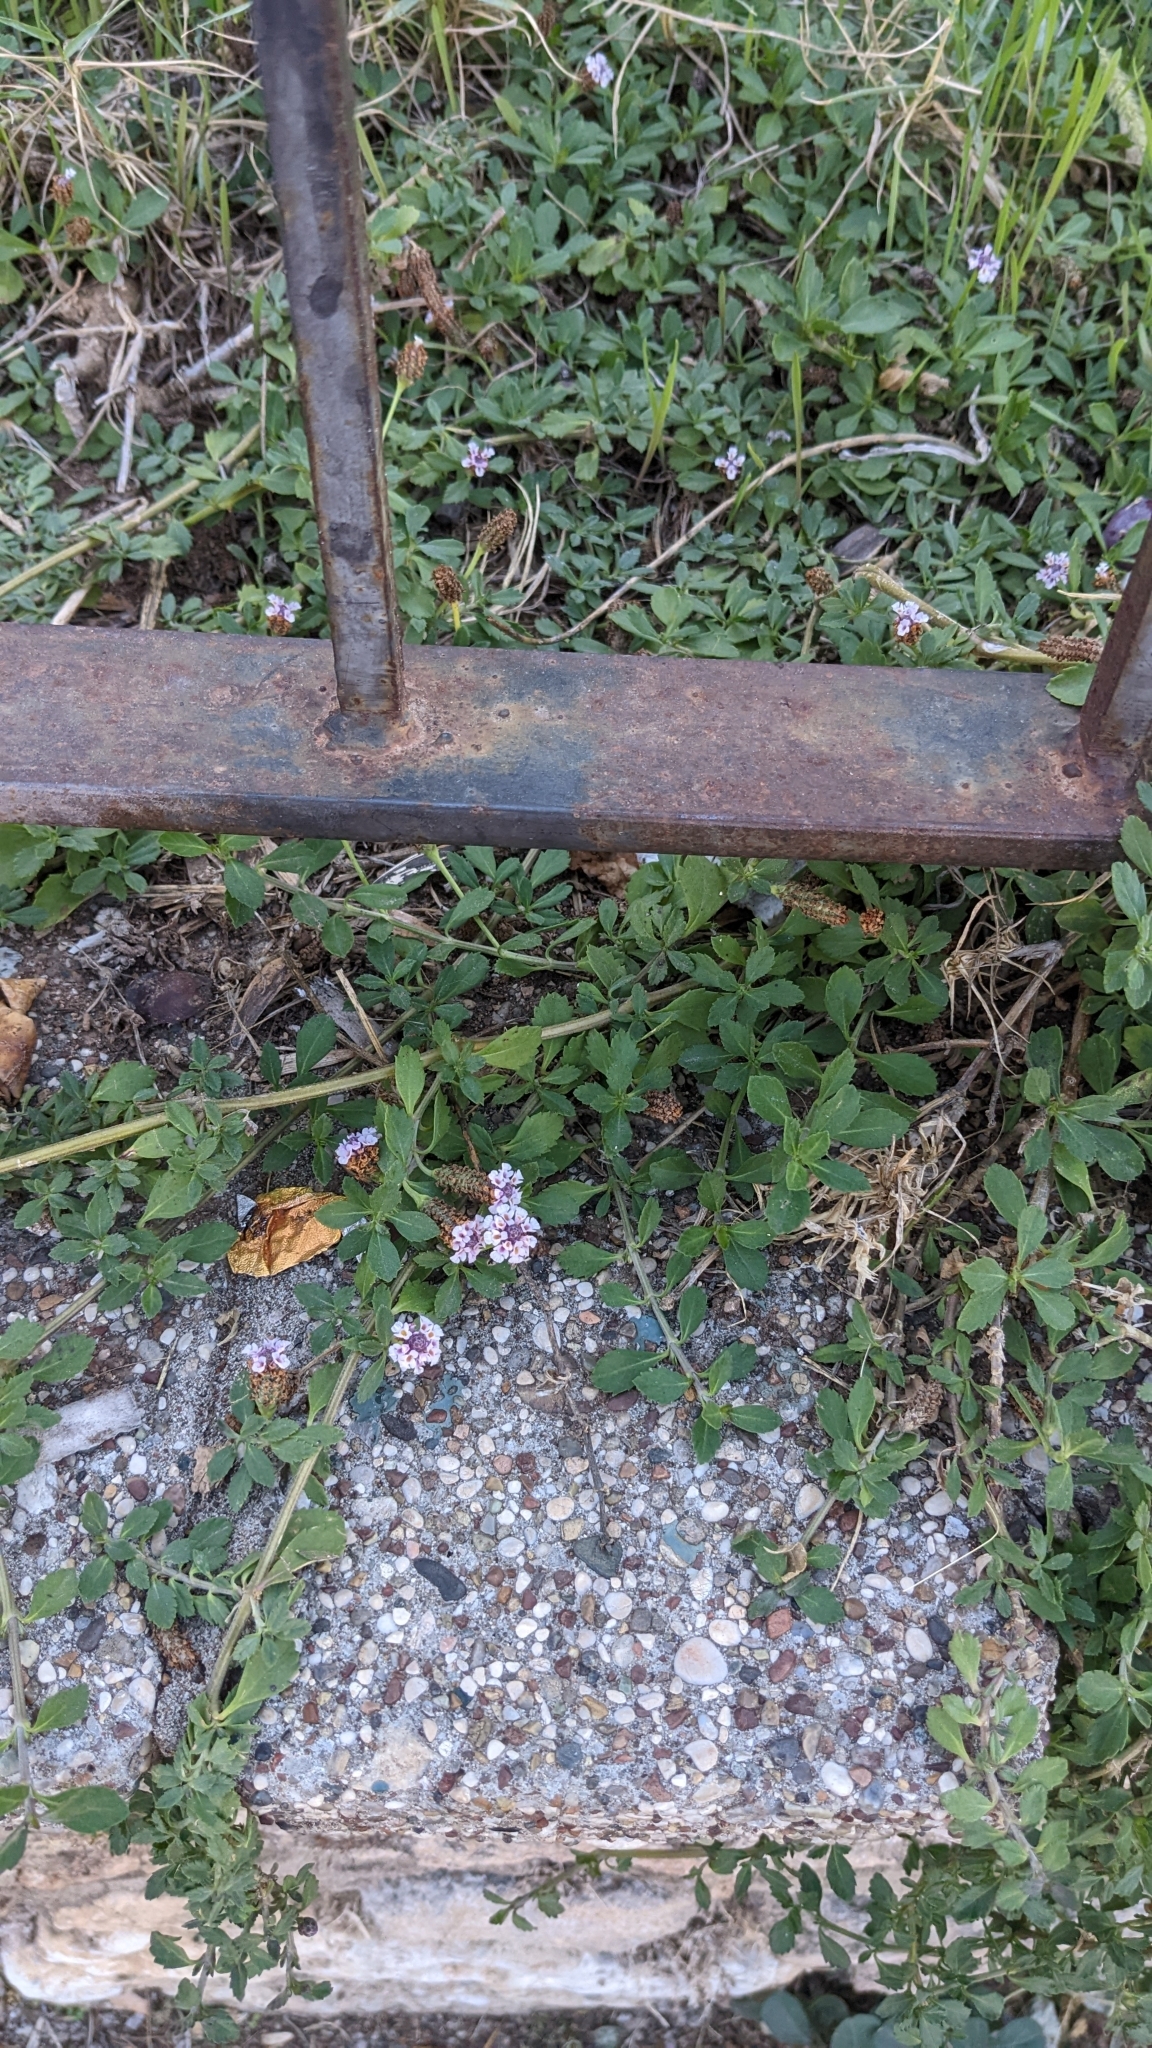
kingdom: Plantae
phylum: Tracheophyta
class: Magnoliopsida
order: Lamiales
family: Verbenaceae
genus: Phyla
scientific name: Phyla nodiflora
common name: Frogfruit
